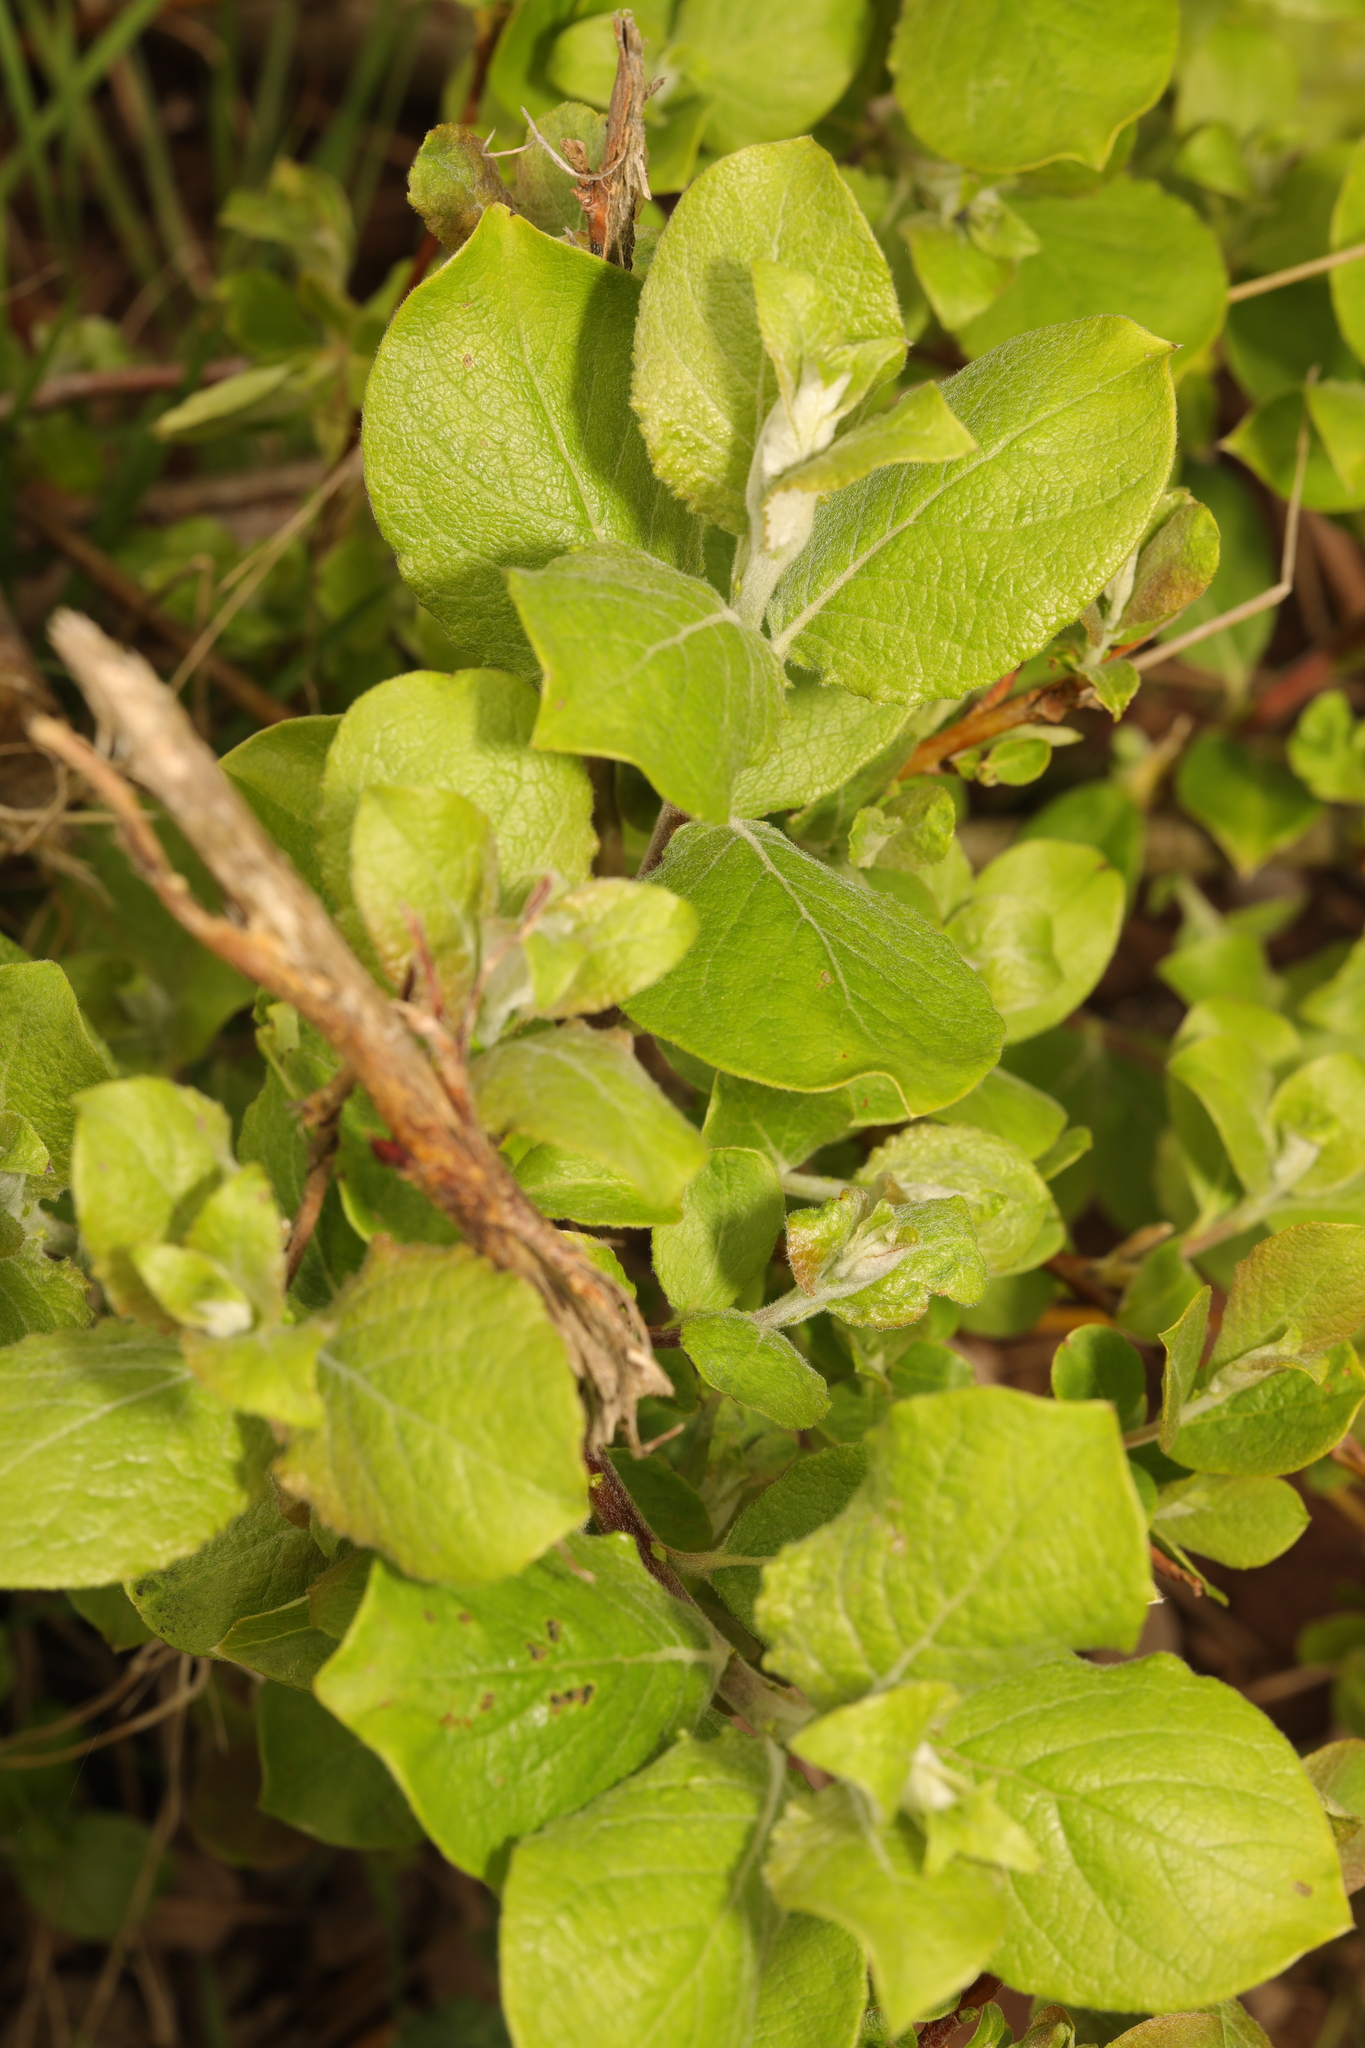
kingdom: Plantae
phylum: Tracheophyta
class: Magnoliopsida
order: Malpighiales
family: Salicaceae
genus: Salix
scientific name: Salix caprea
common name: Goat willow
